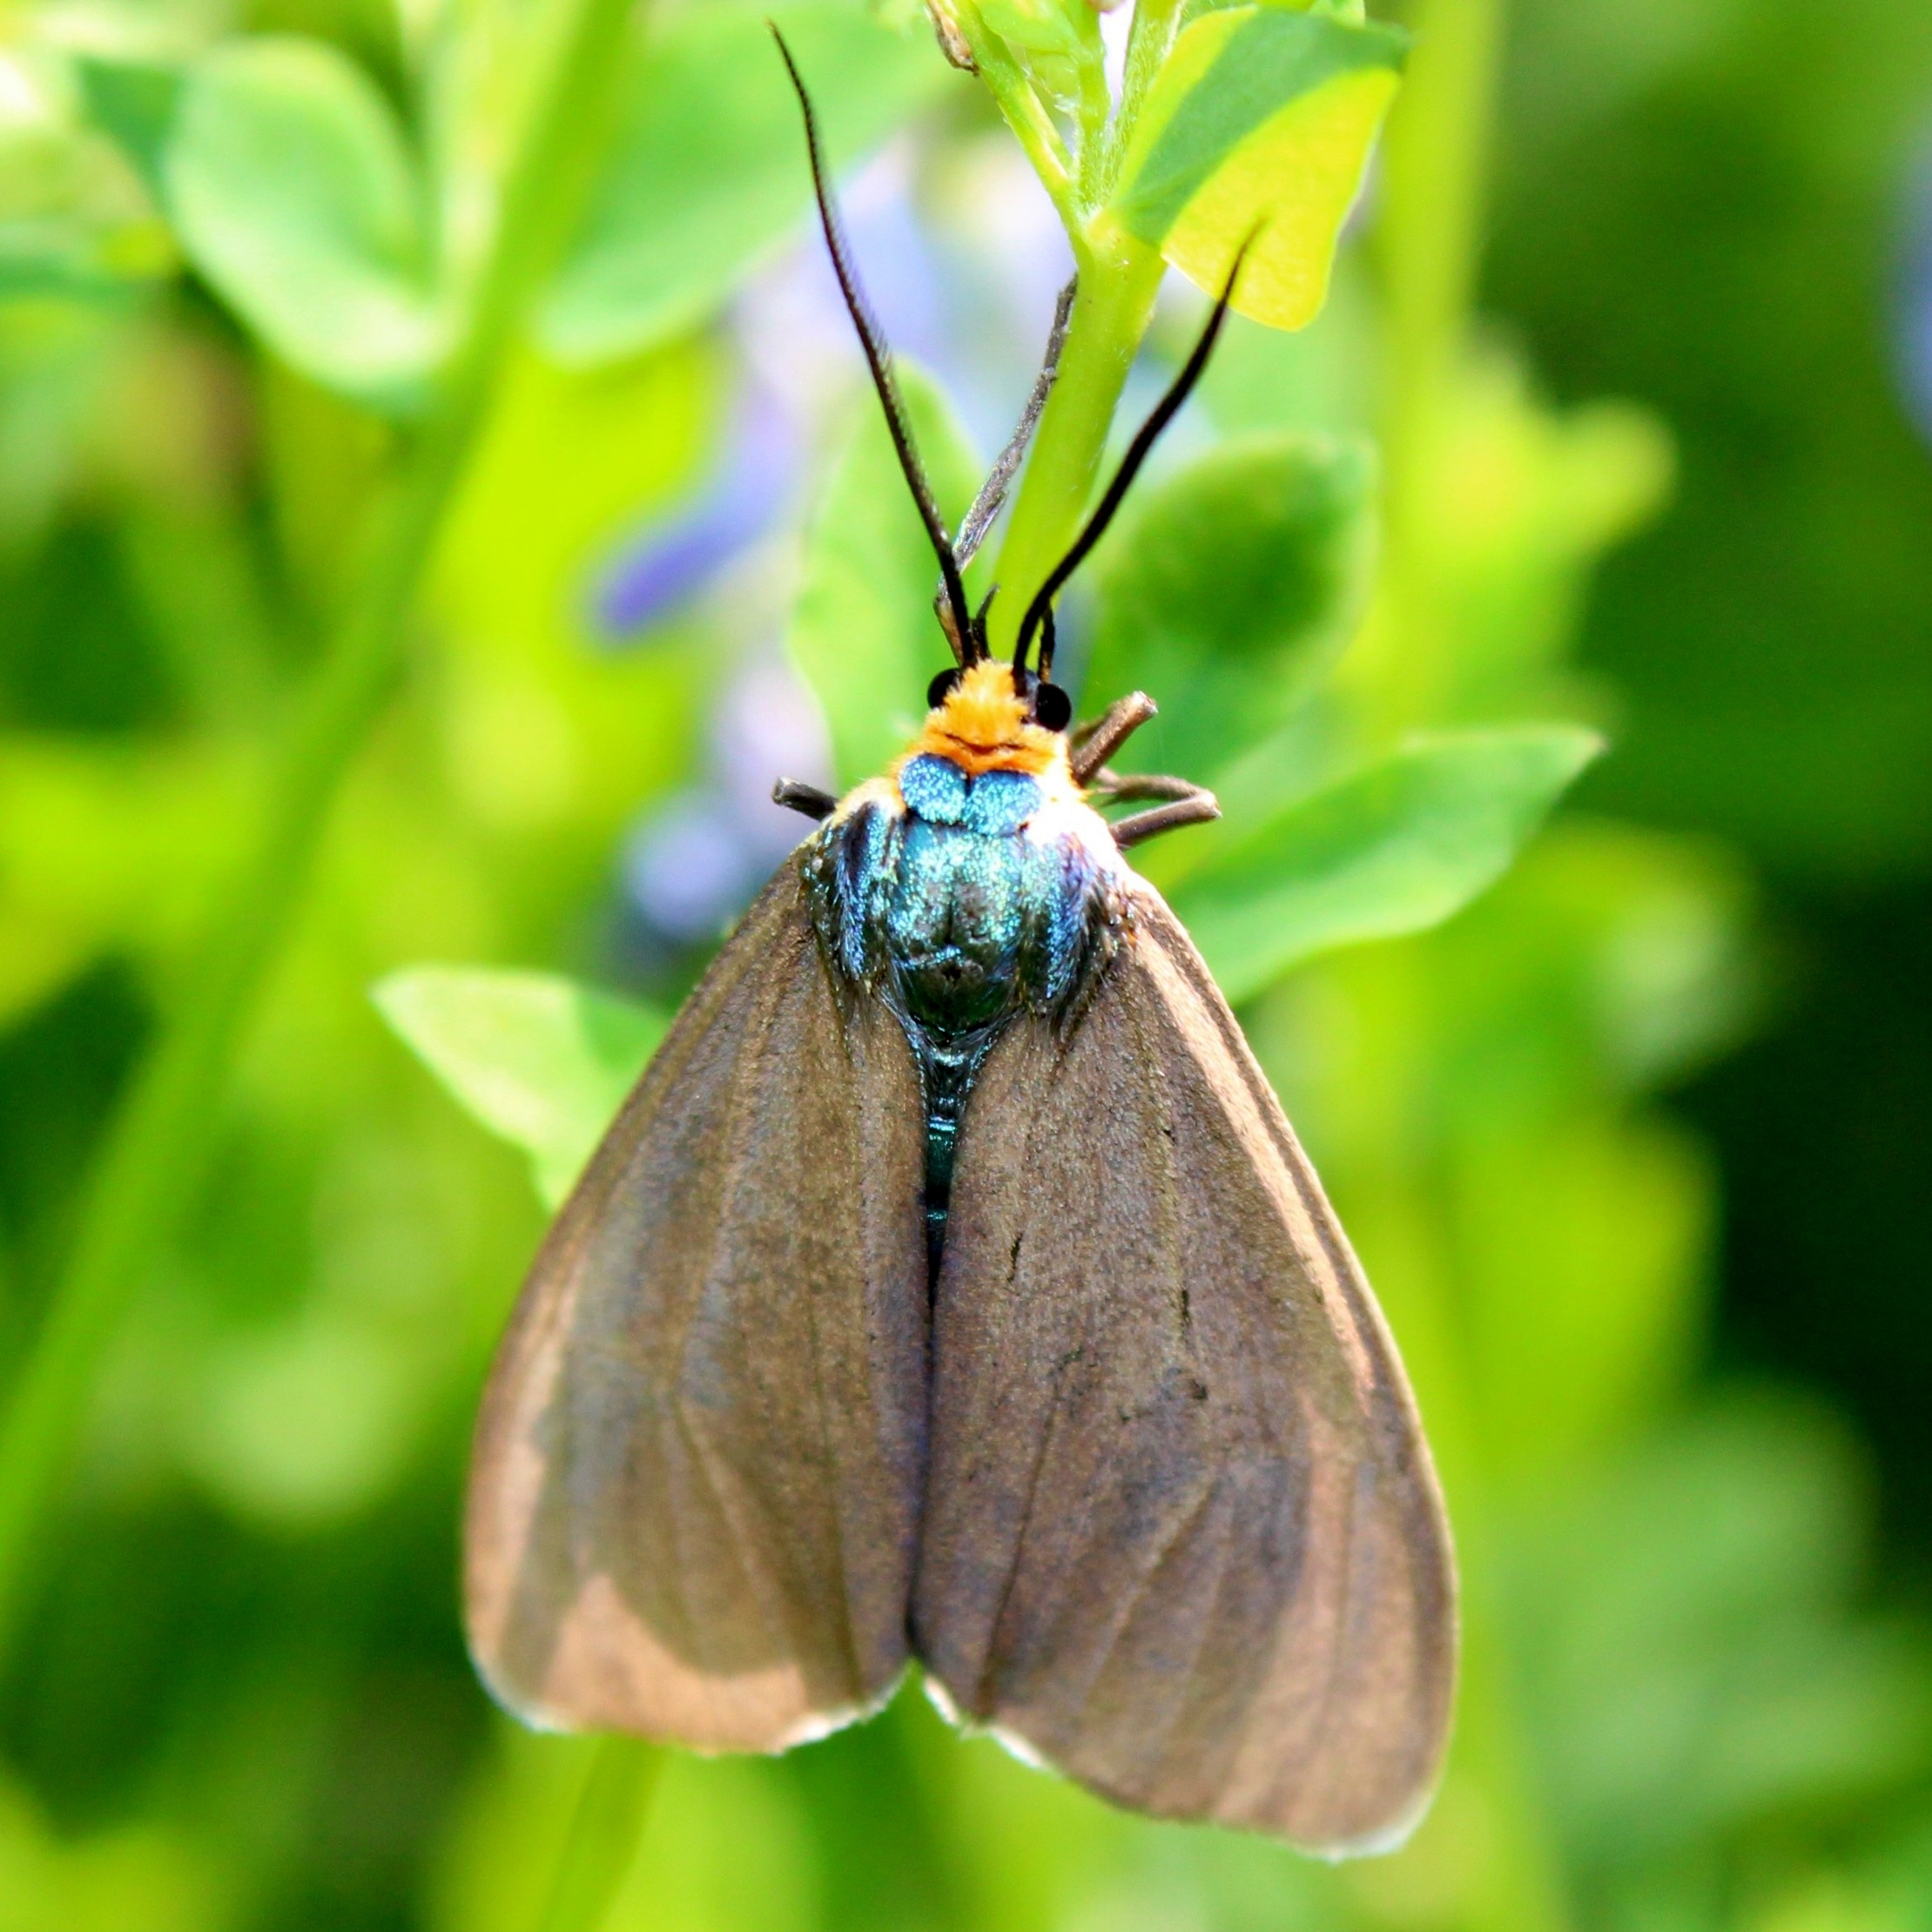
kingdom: Animalia
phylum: Arthropoda
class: Insecta
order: Lepidoptera
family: Erebidae
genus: Ctenucha
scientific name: Ctenucha virginica
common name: Virginia ctenucha moth
